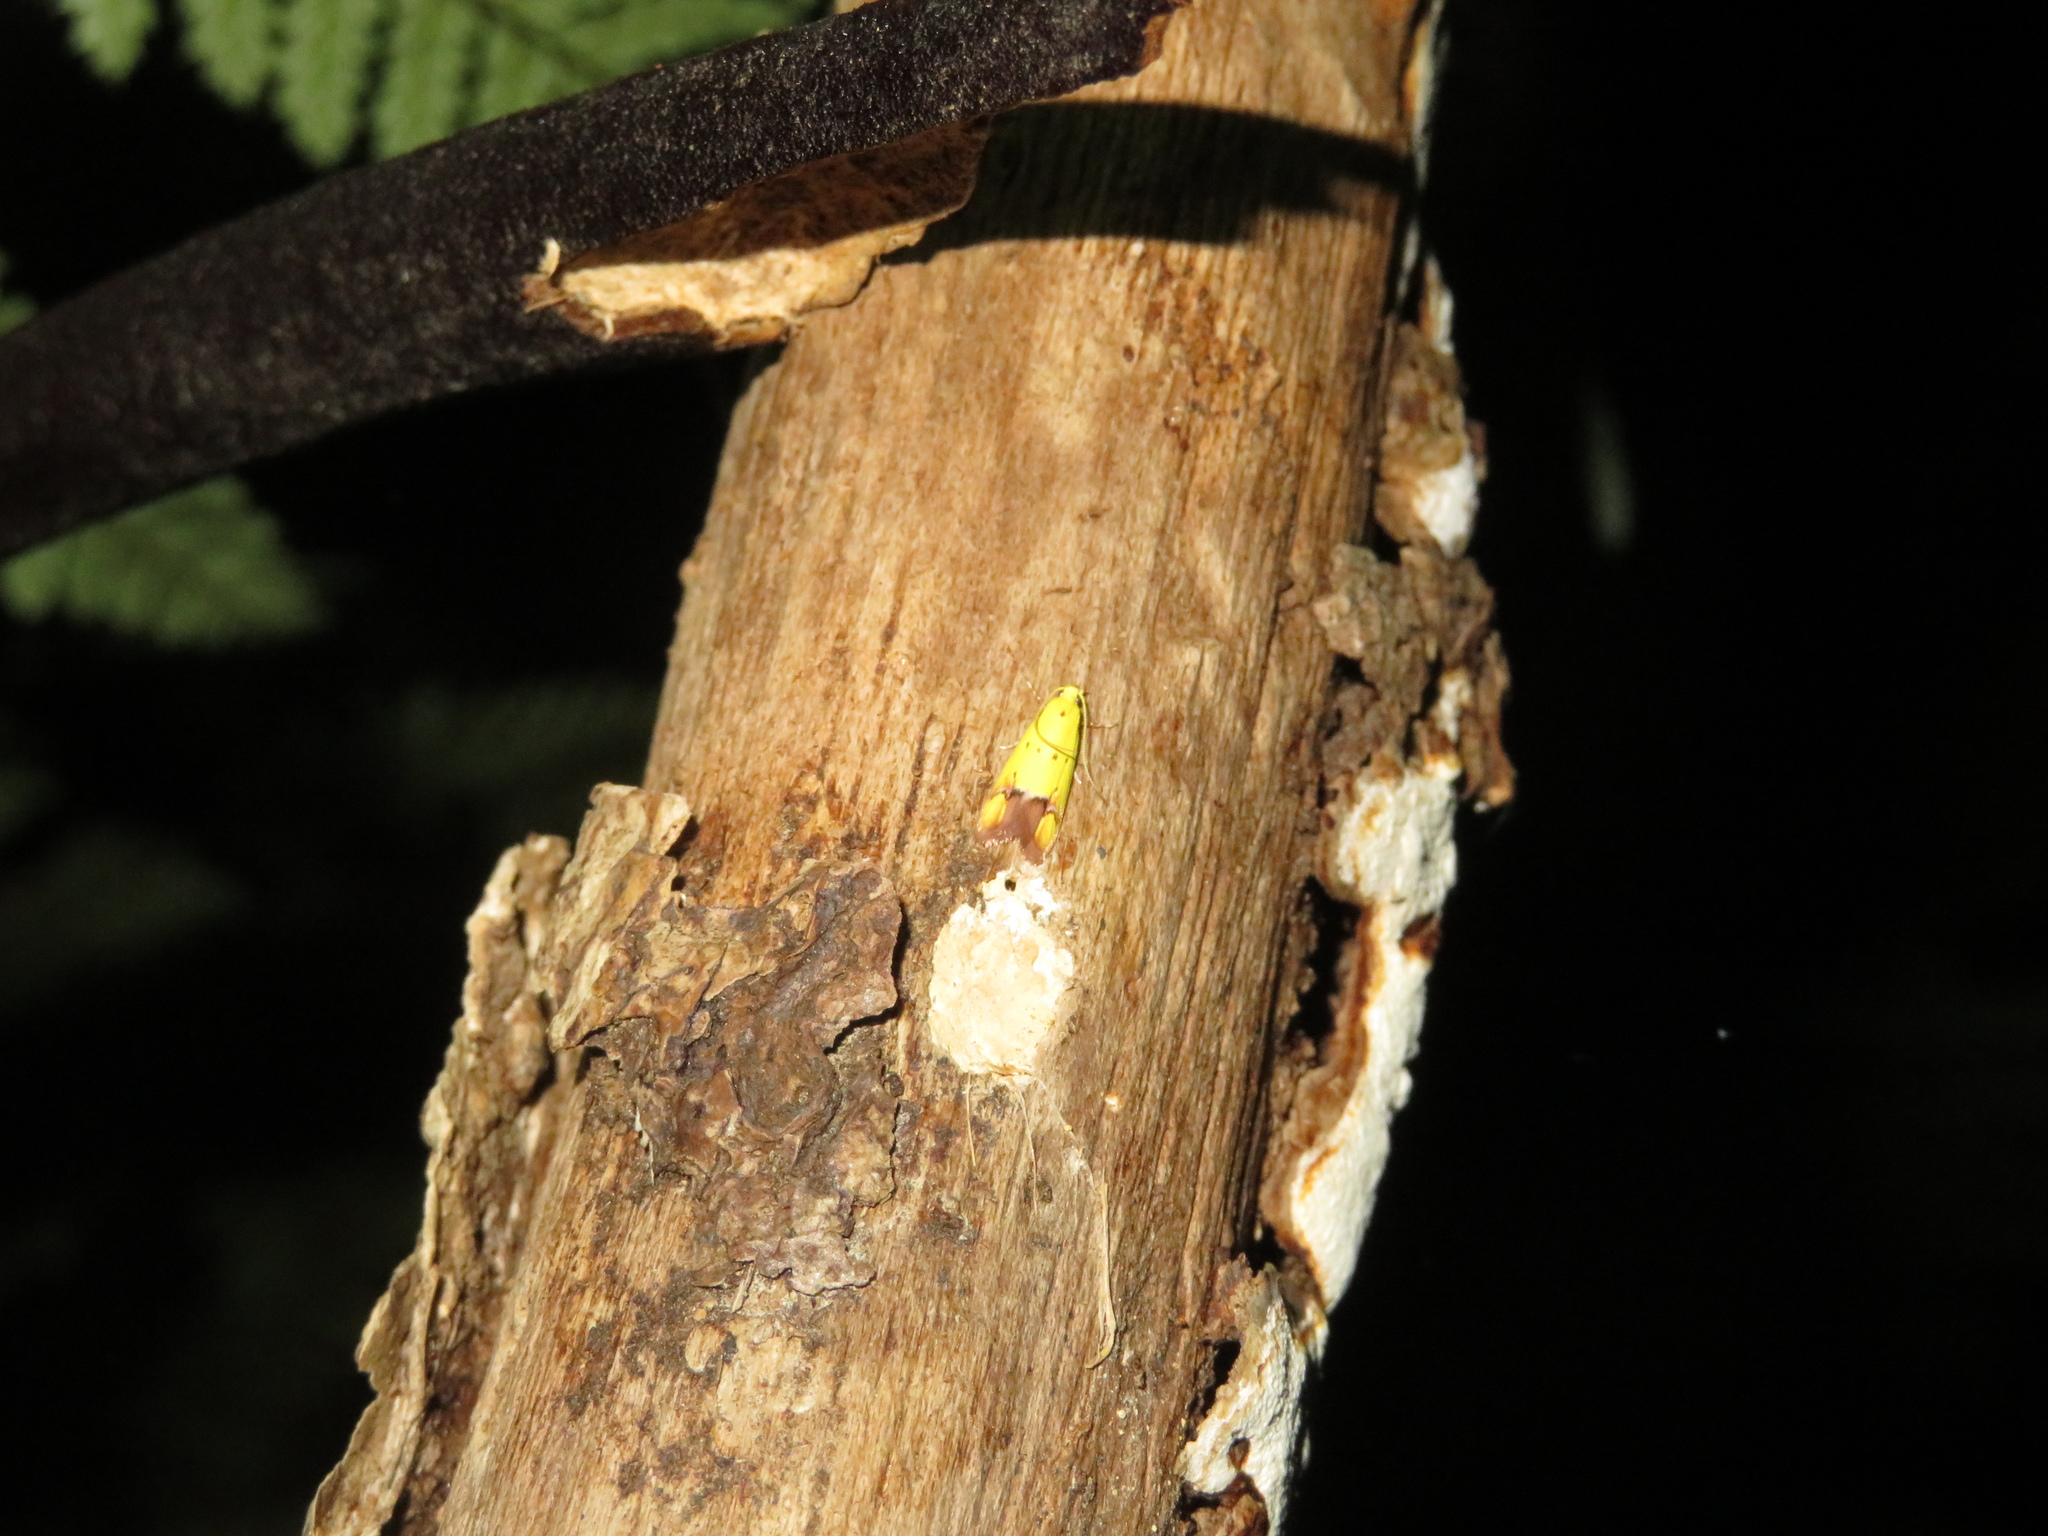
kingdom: Animalia
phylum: Arthropoda
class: Insecta
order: Lepidoptera
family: Oecophoridae
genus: Gymnobathra
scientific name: Gymnobathra flavidella
